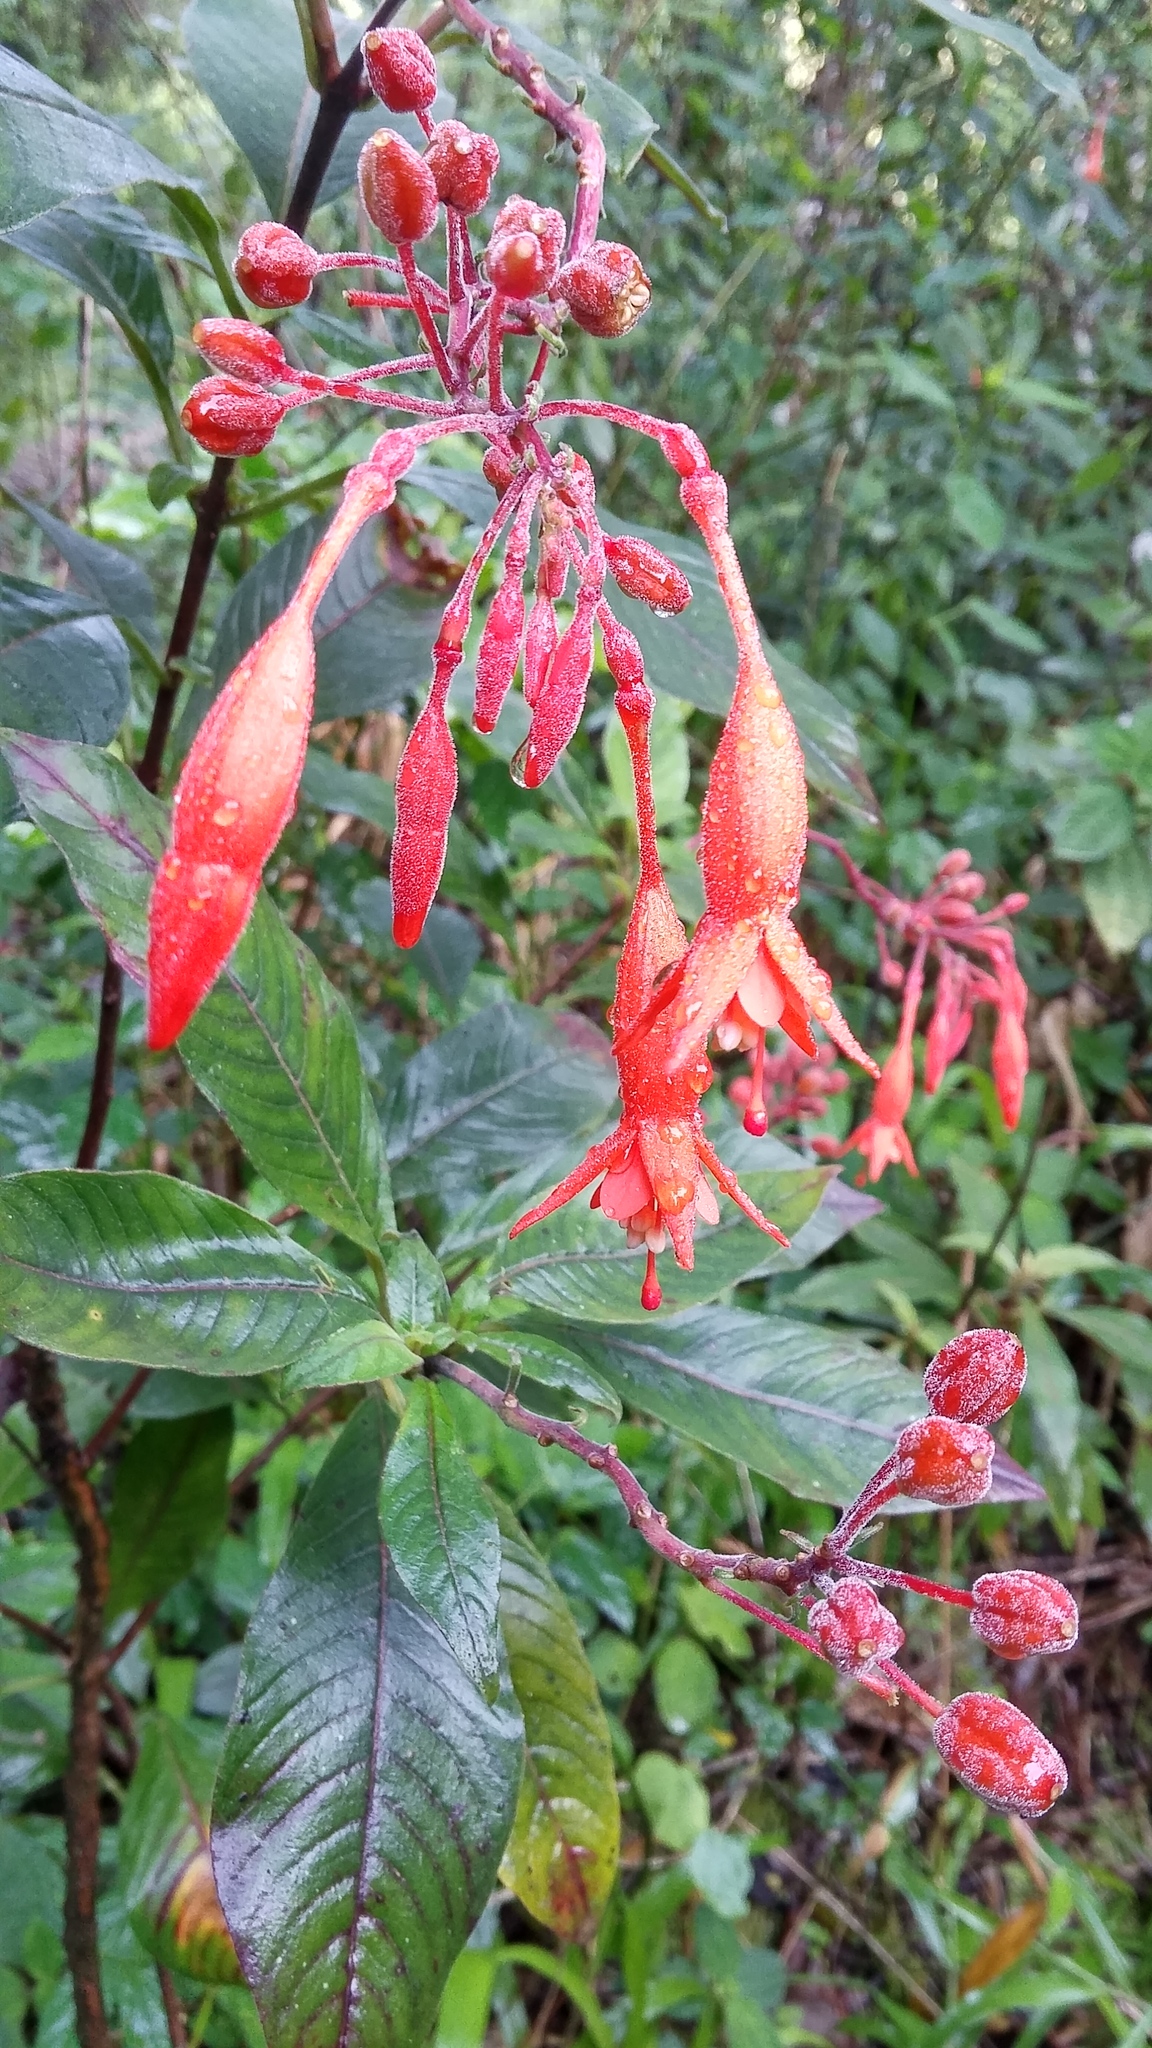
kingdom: Plantae
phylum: Tracheophyta
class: Magnoliopsida
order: Myrtales
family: Onagraceae
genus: Fuchsia
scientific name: Fuchsia triphylla
